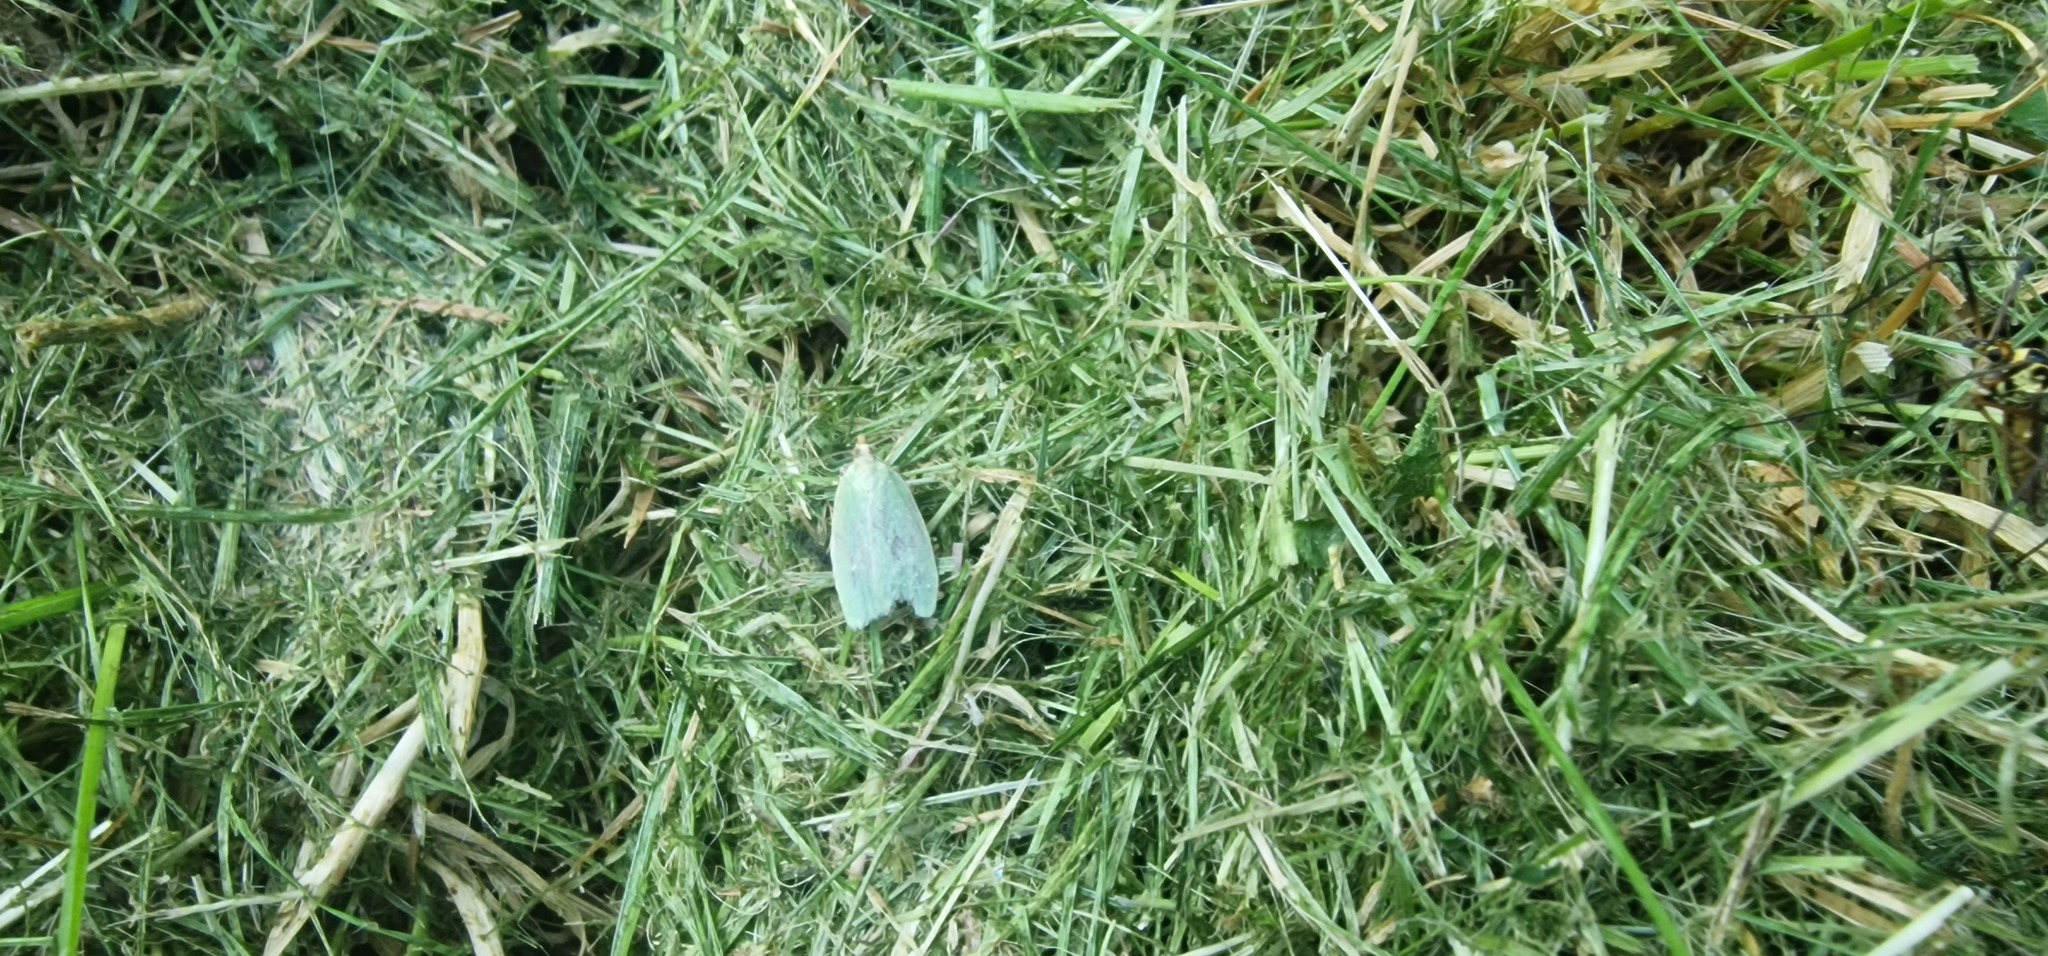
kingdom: Animalia
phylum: Arthropoda
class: Insecta
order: Lepidoptera
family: Tortricidae
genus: Tortrix
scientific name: Tortrix viridana
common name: Green oak tortrix
